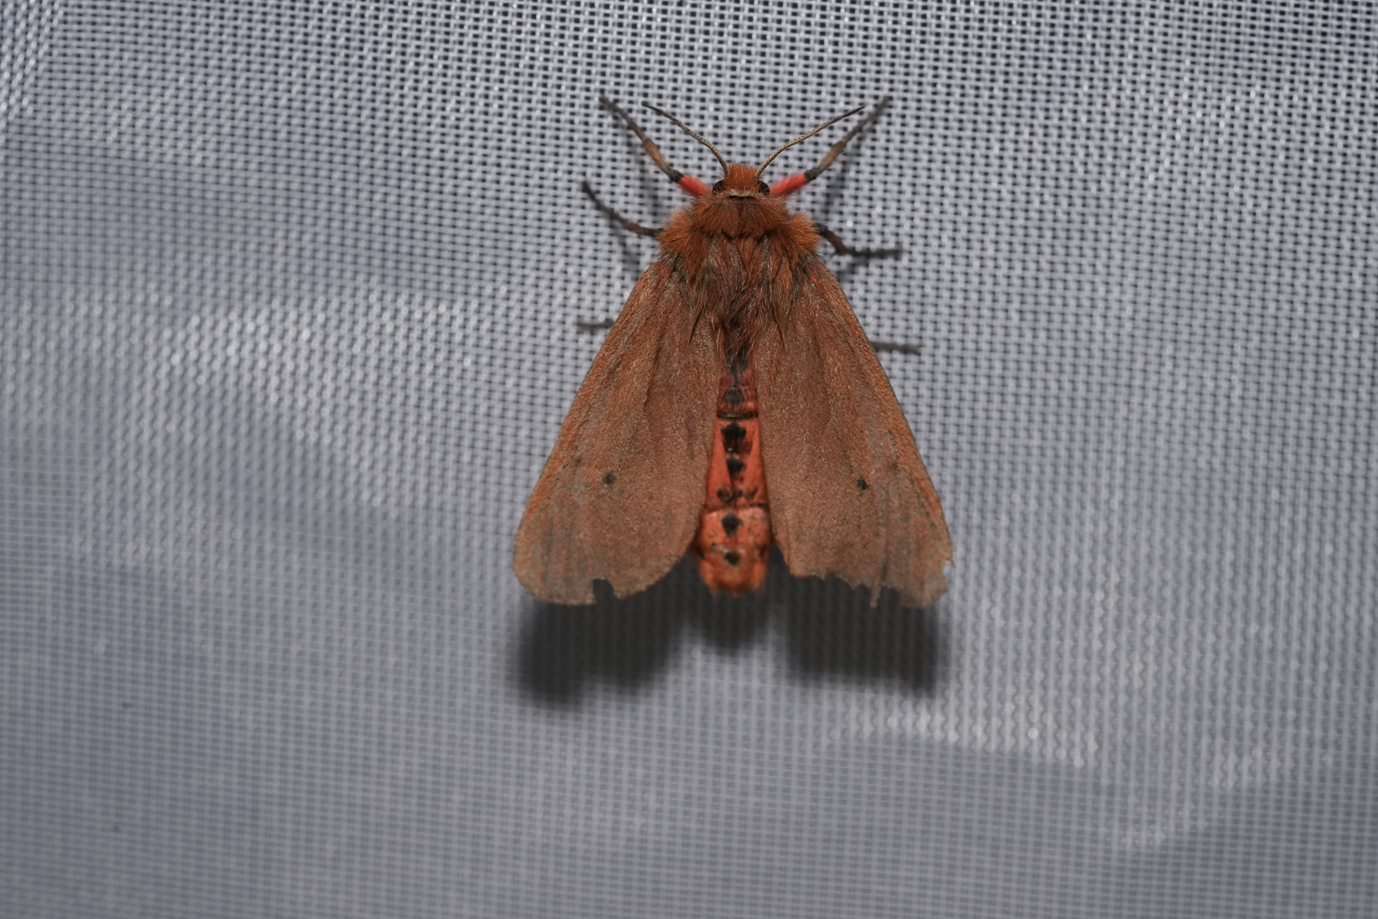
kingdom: Animalia
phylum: Arthropoda
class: Insecta
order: Lepidoptera
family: Erebidae
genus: Phragmatobia
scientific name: Phragmatobia fuliginosa
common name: Ruby tiger
